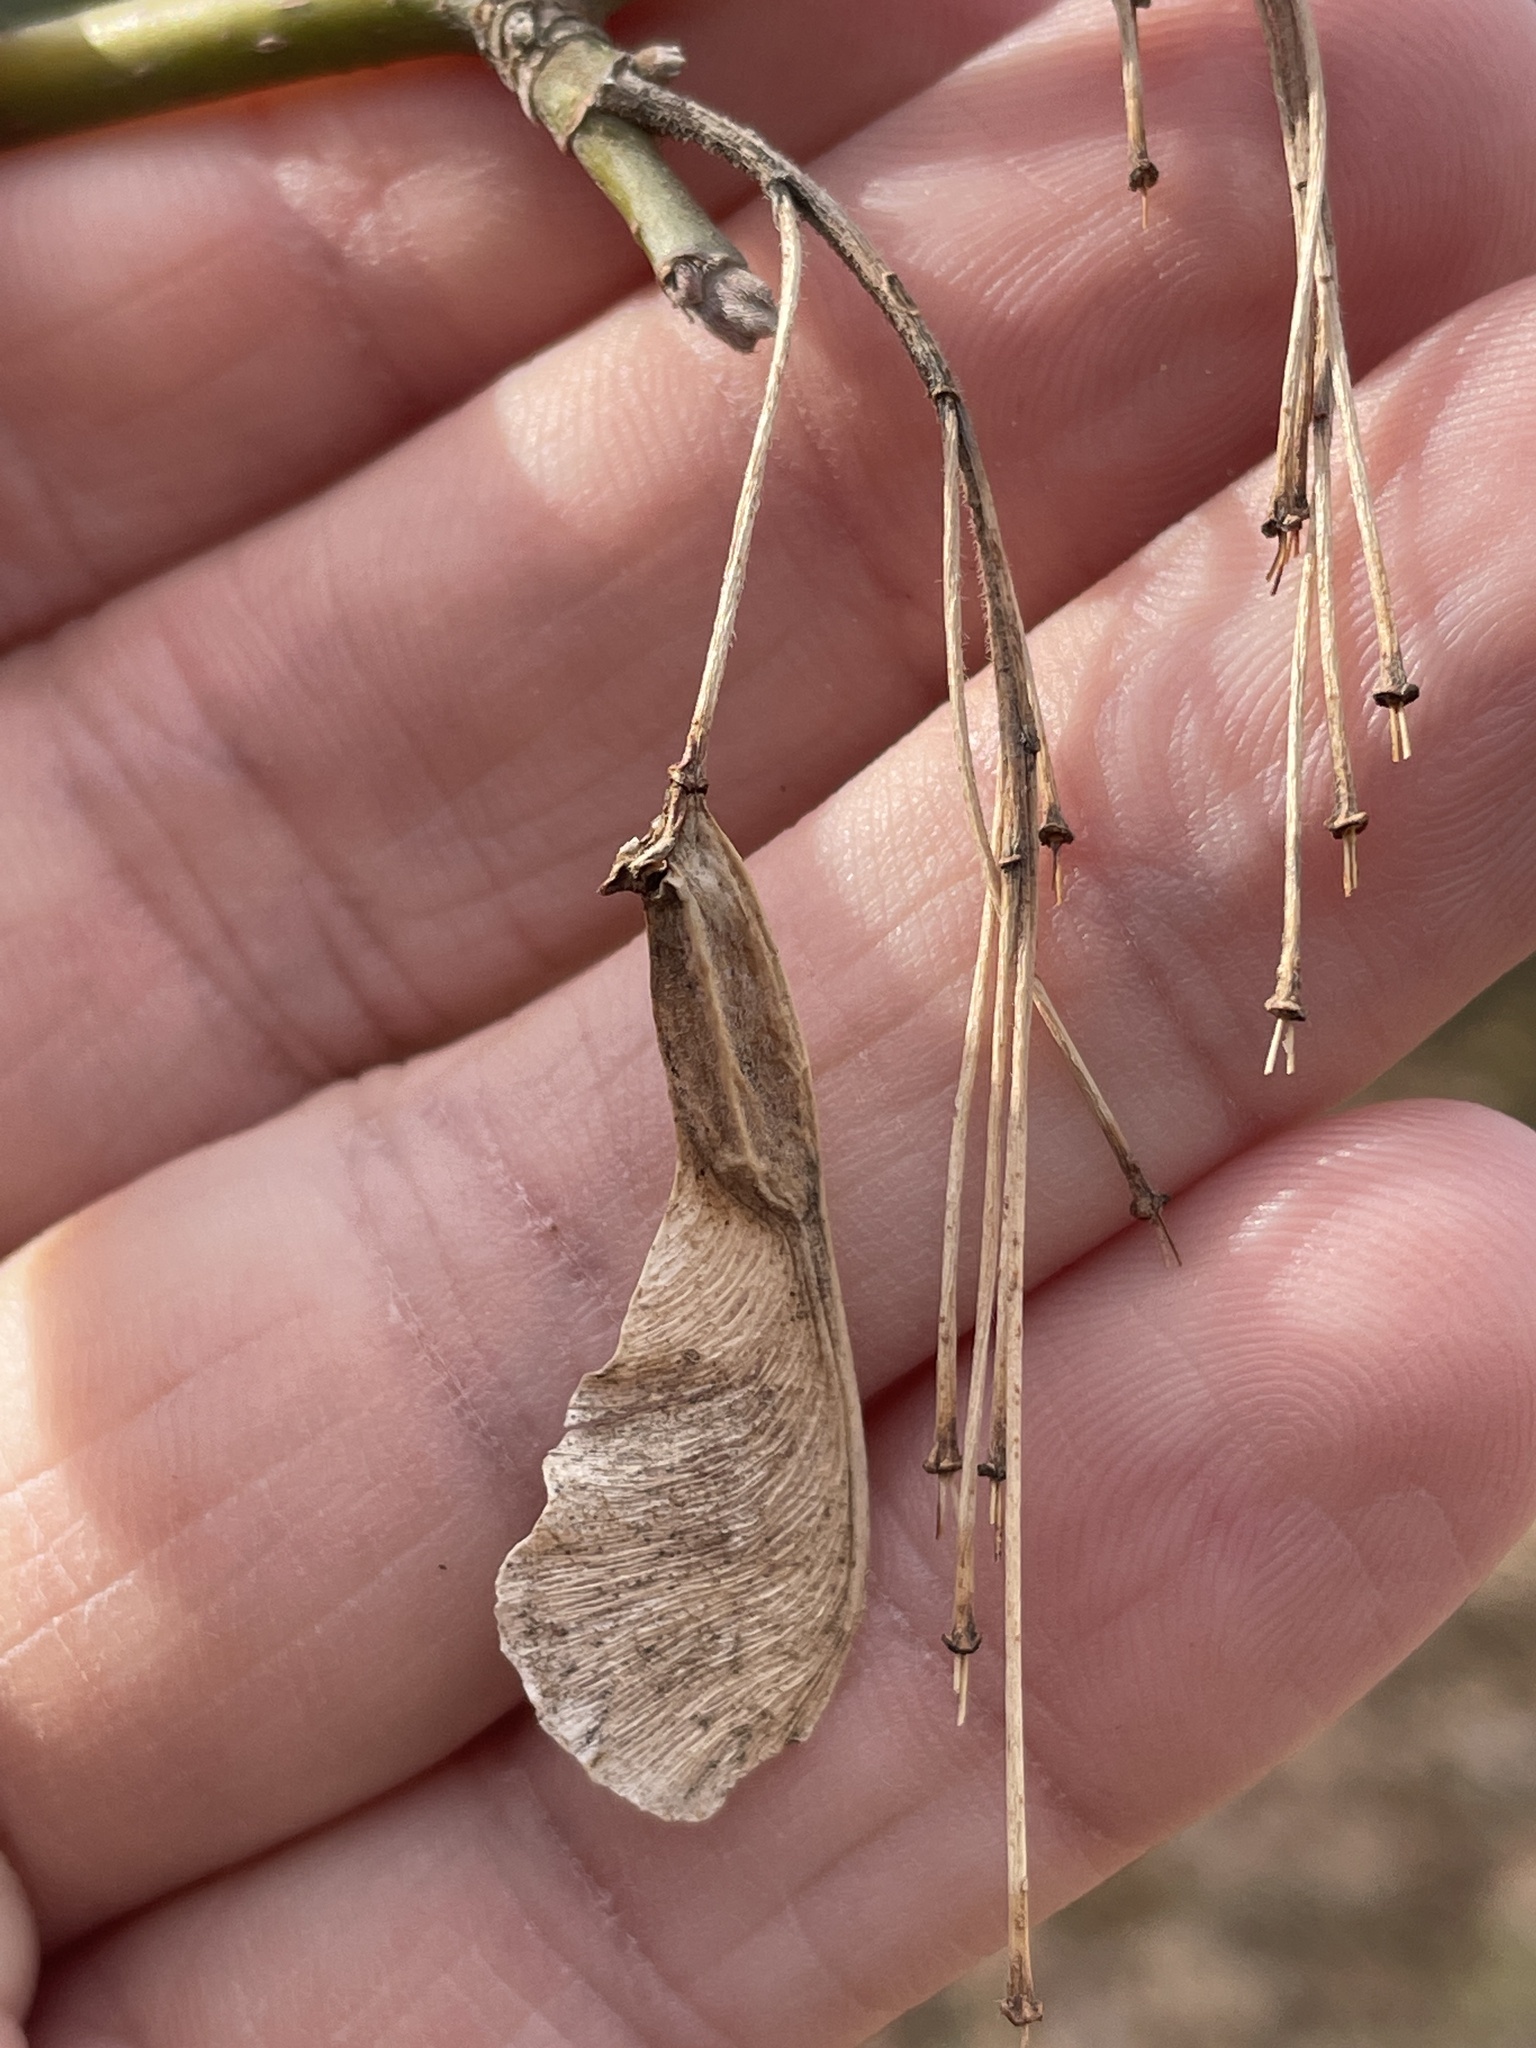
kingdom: Plantae
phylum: Tracheophyta
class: Magnoliopsida
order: Sapindales
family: Sapindaceae
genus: Acer
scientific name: Acer negundo
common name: Ashleaf maple
